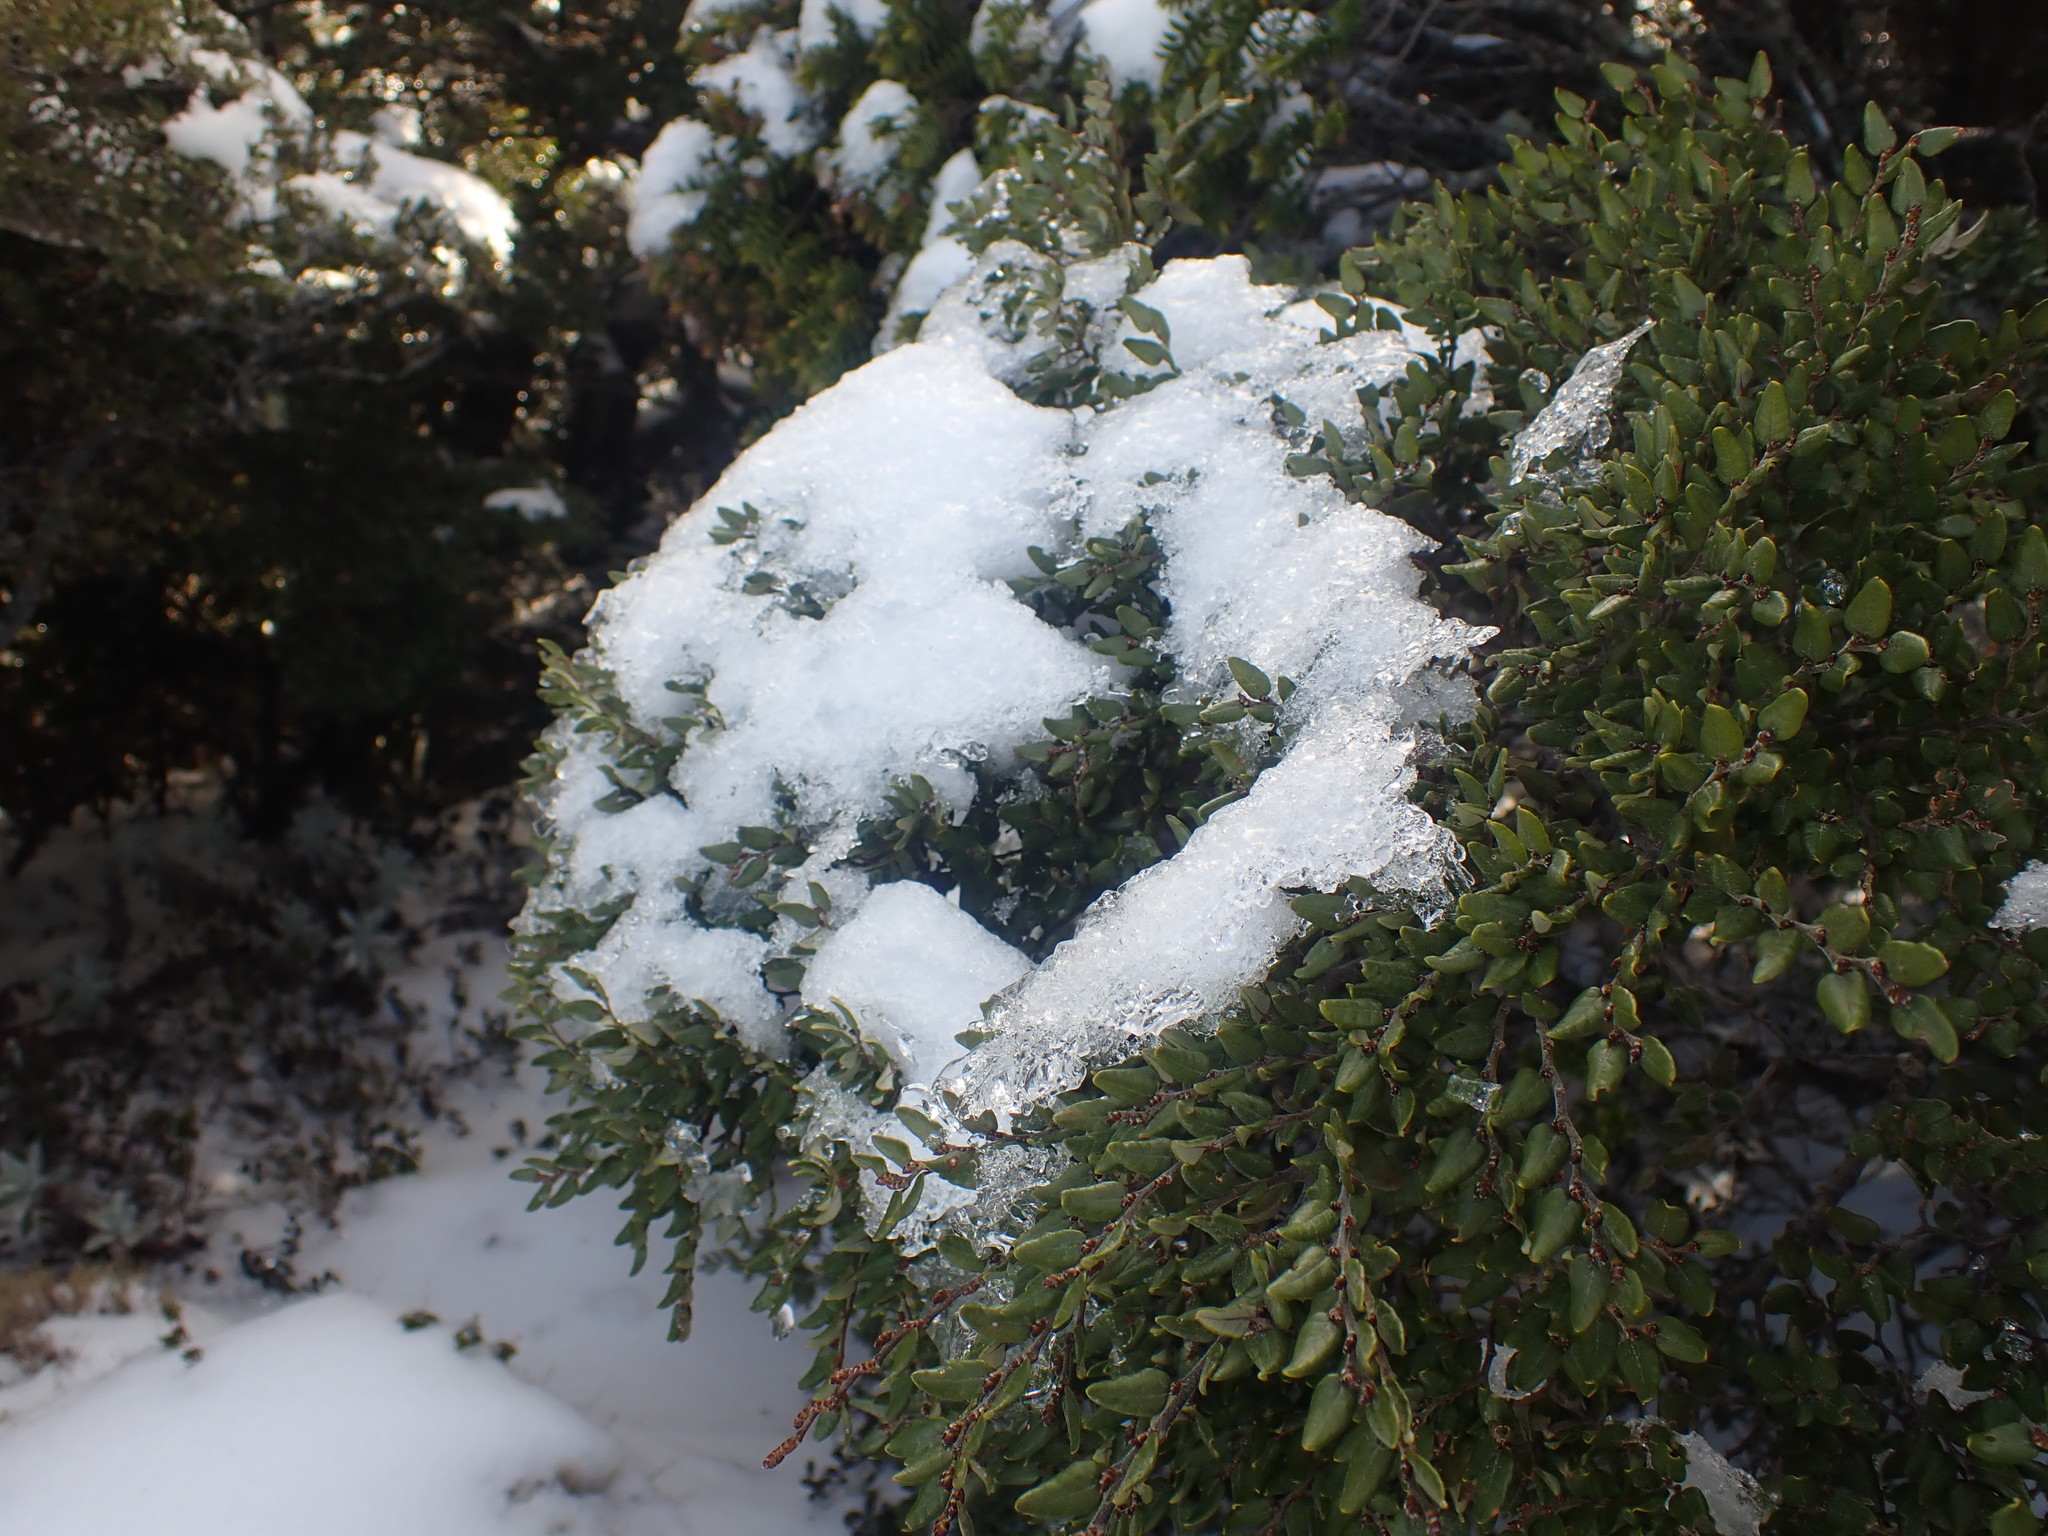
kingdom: Plantae
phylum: Tracheophyta
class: Magnoliopsida
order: Fagales
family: Nothofagaceae
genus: Nothofagus
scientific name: Nothofagus cliffortioides
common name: Mountain beech
